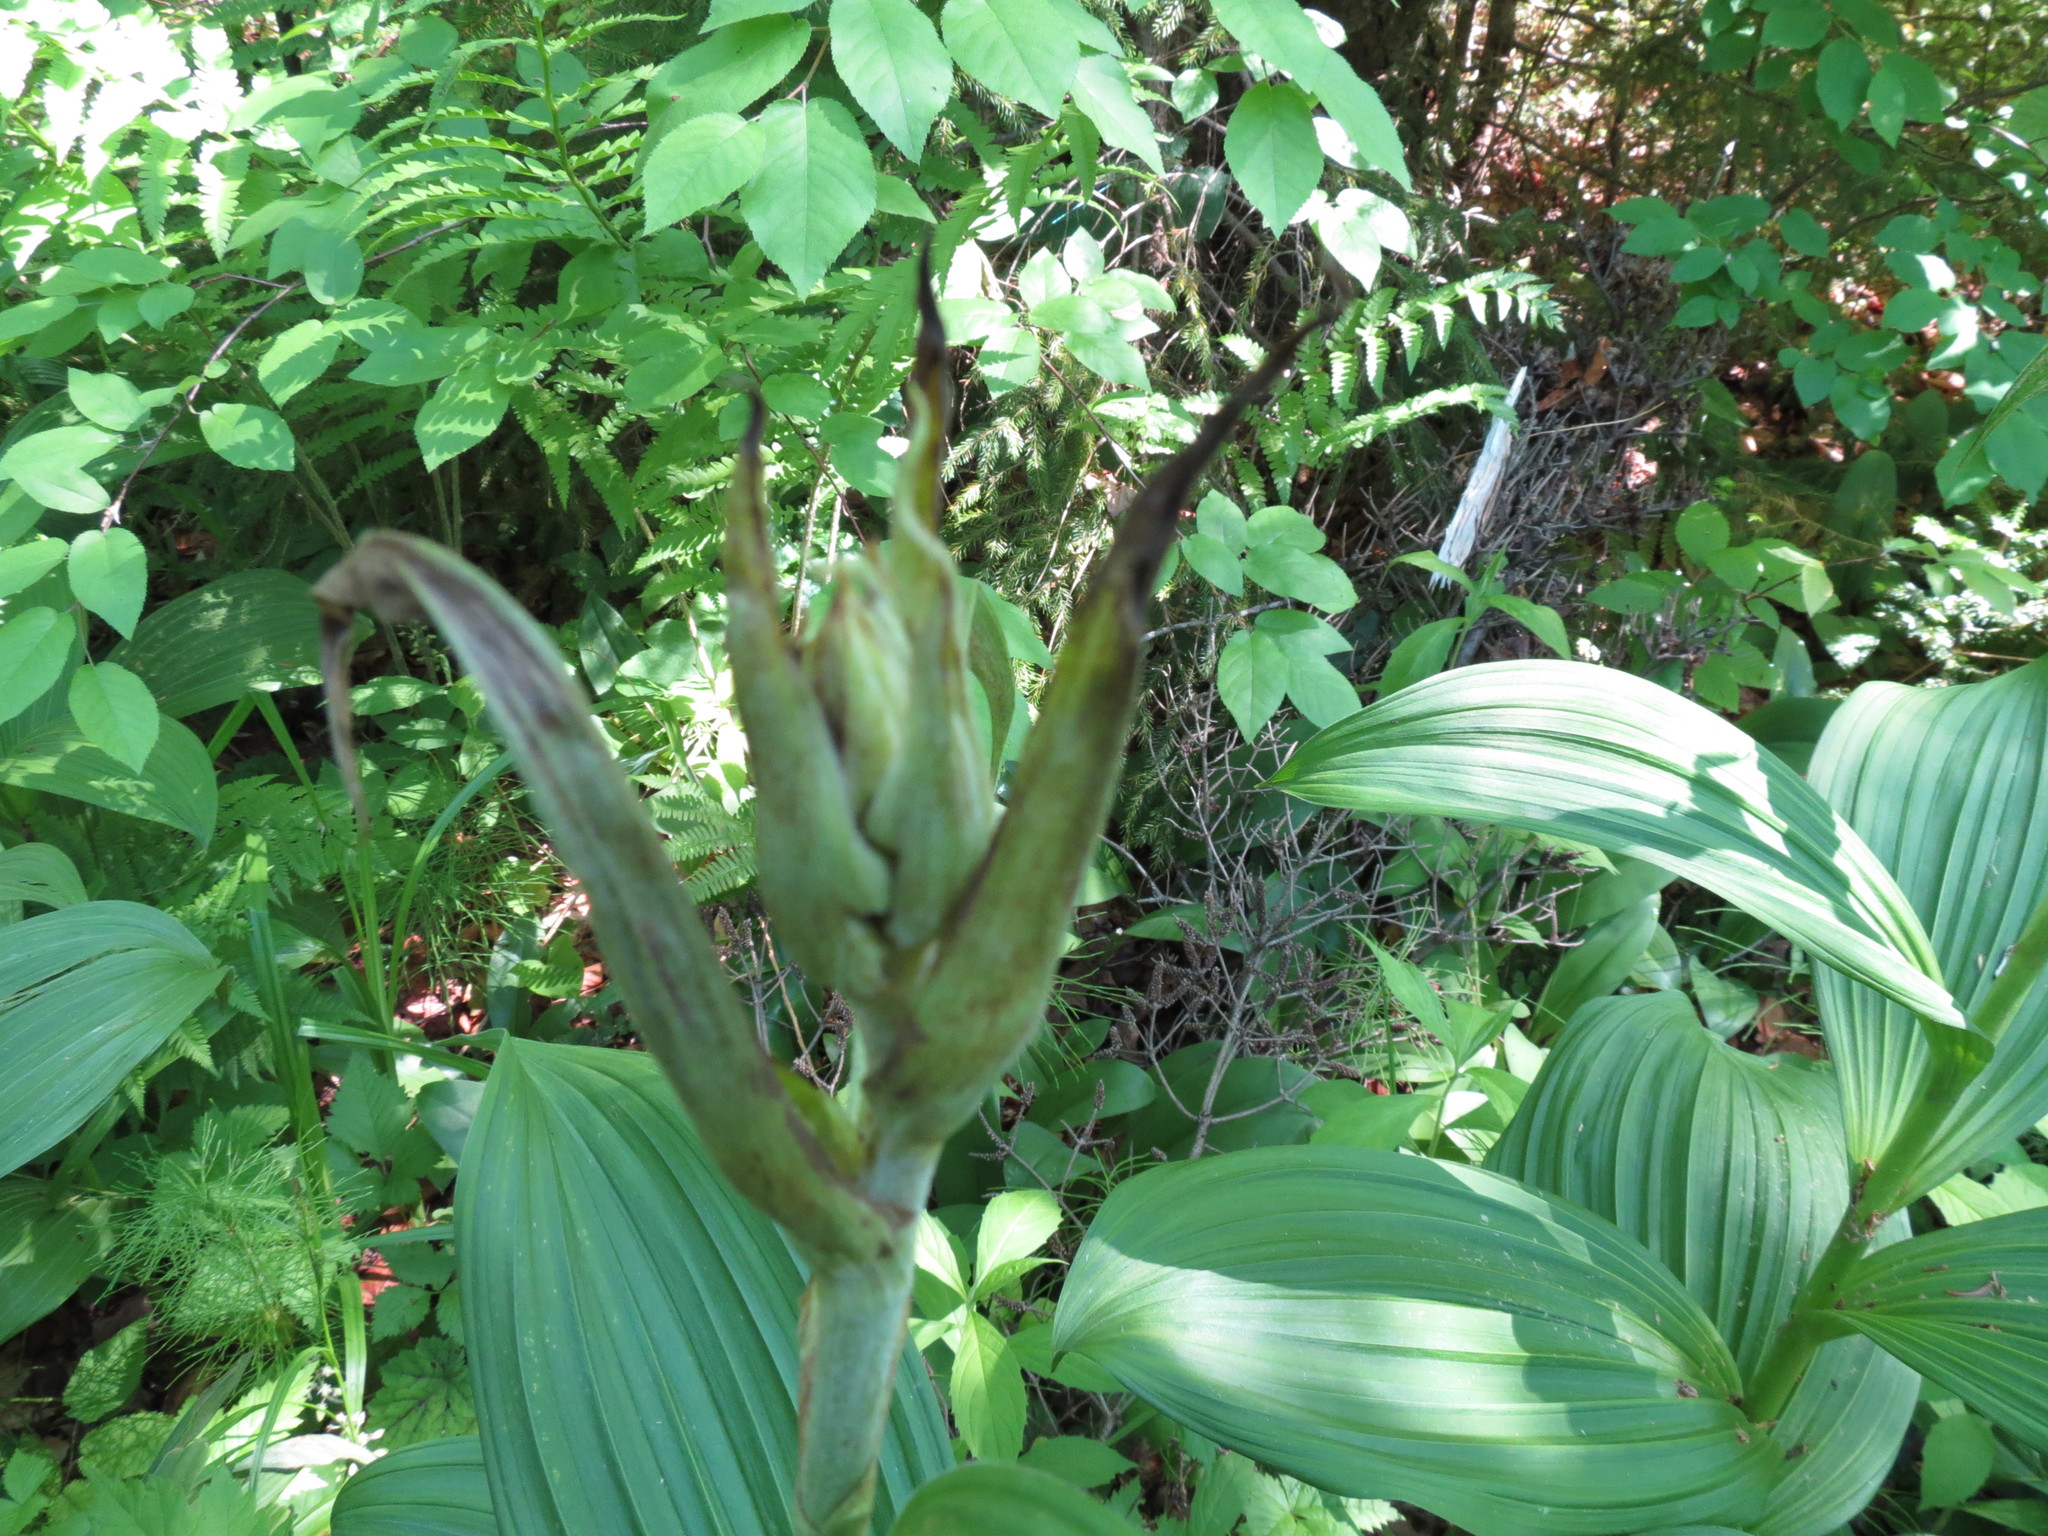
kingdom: Plantae
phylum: Tracheophyta
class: Liliopsida
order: Liliales
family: Melanthiaceae
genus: Veratrum
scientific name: Veratrum viride
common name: American false hellebore
